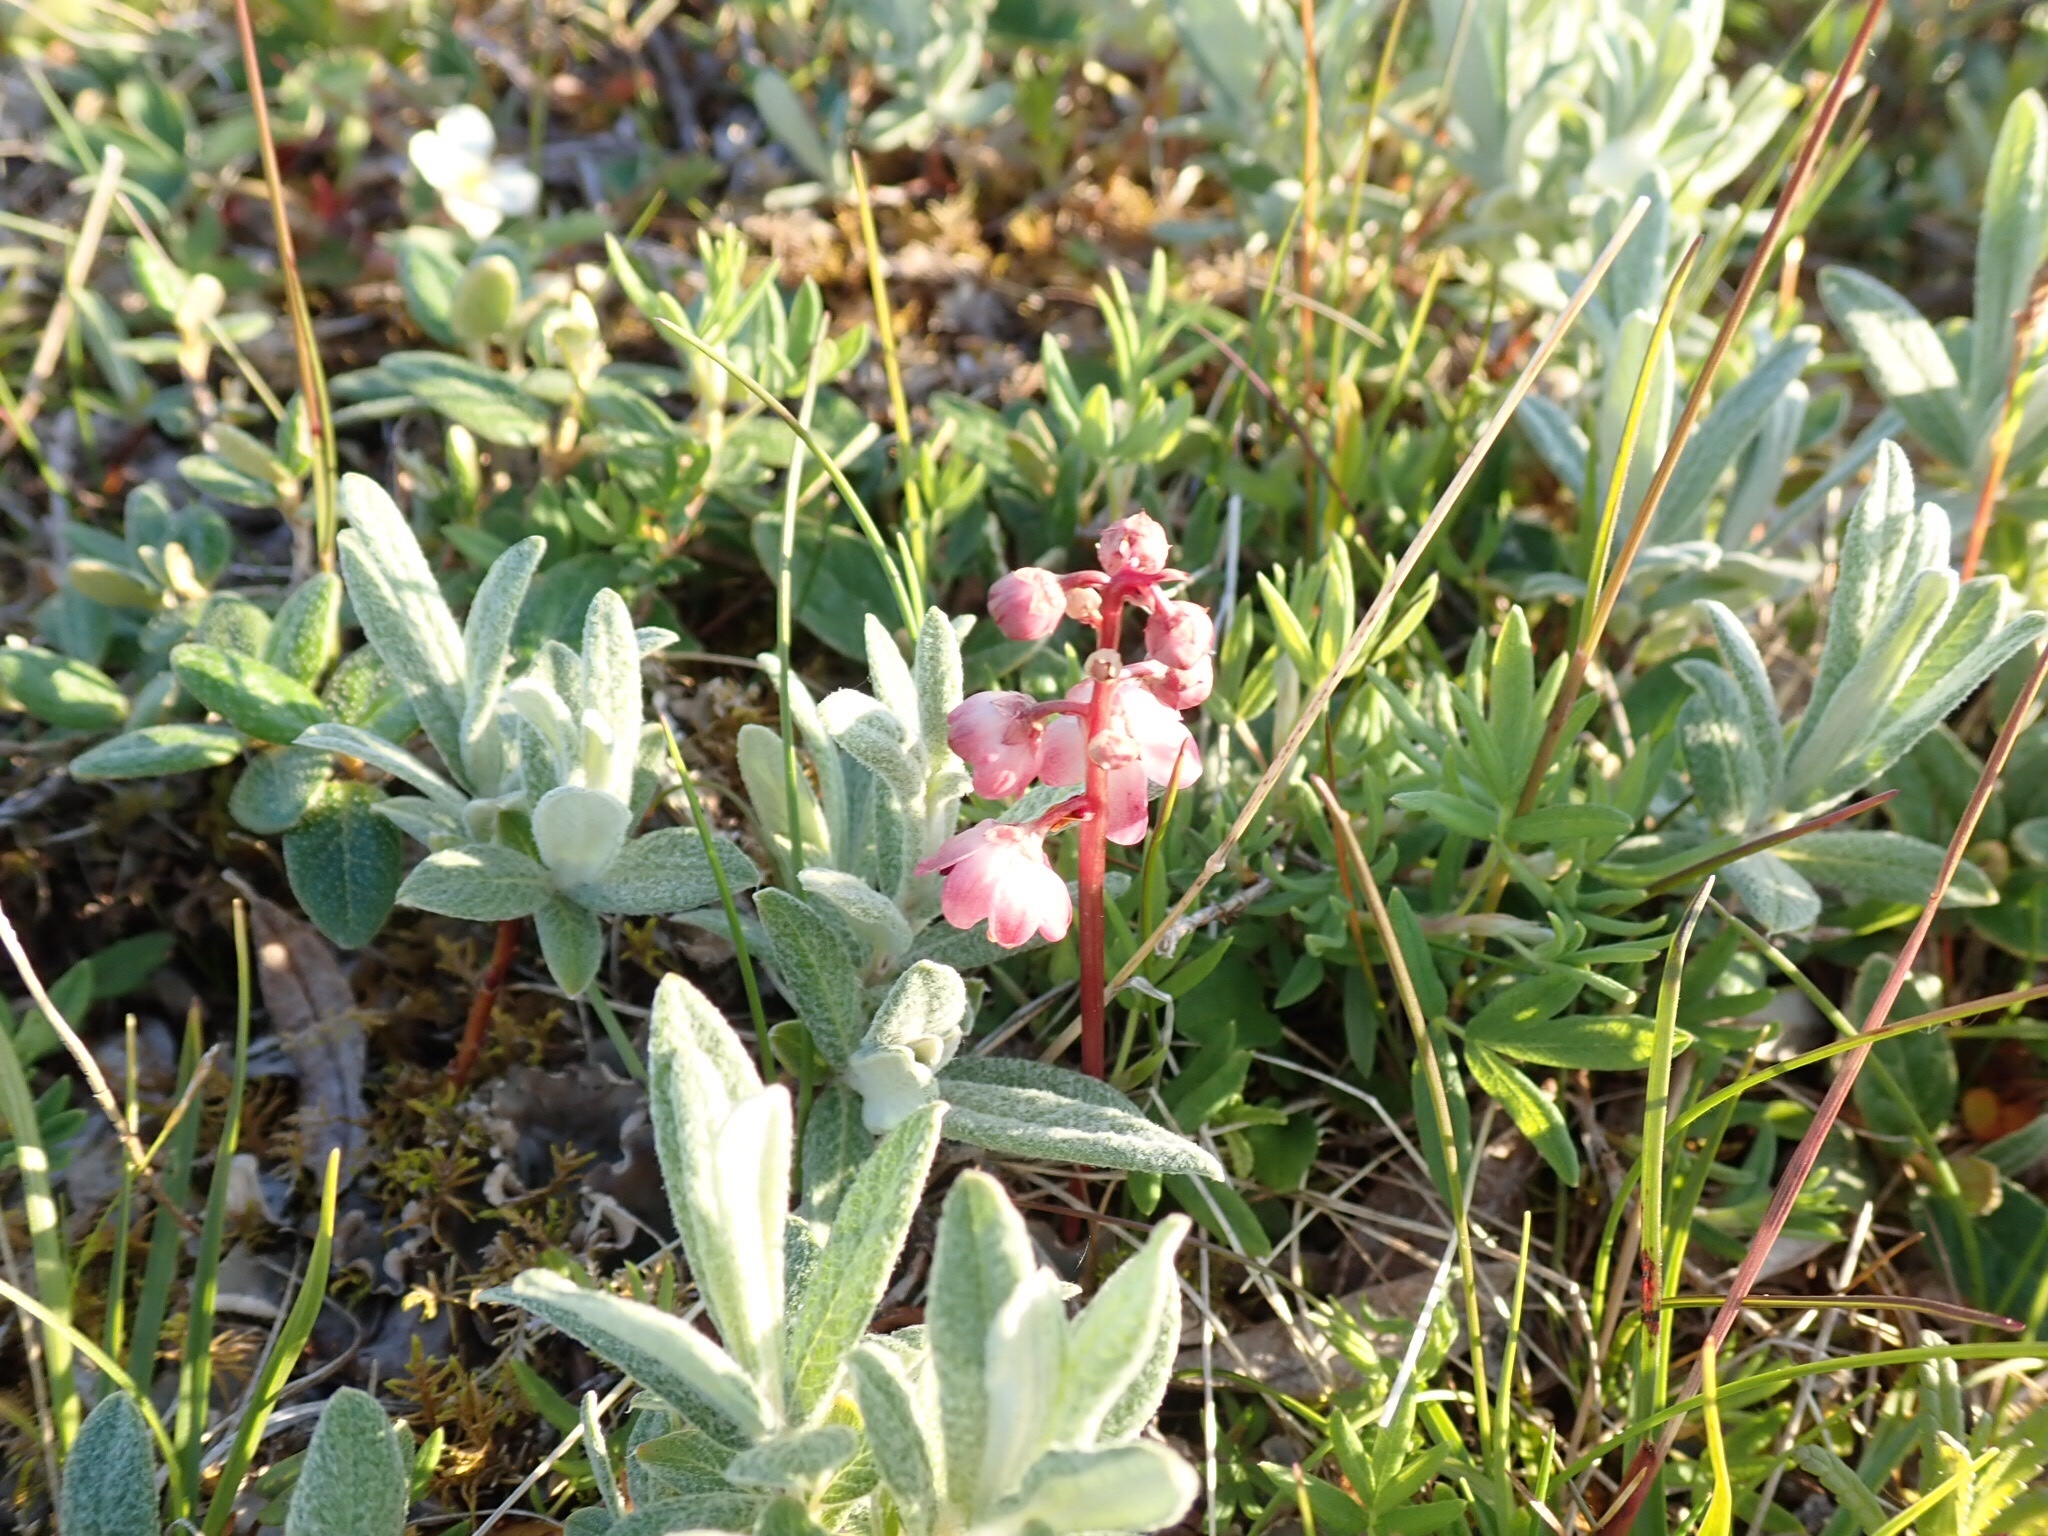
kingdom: Plantae
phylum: Tracheophyta
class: Magnoliopsida
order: Ericales
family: Ericaceae
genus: Pyrola
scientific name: Pyrola asarifolia
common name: Bog wintergreen
